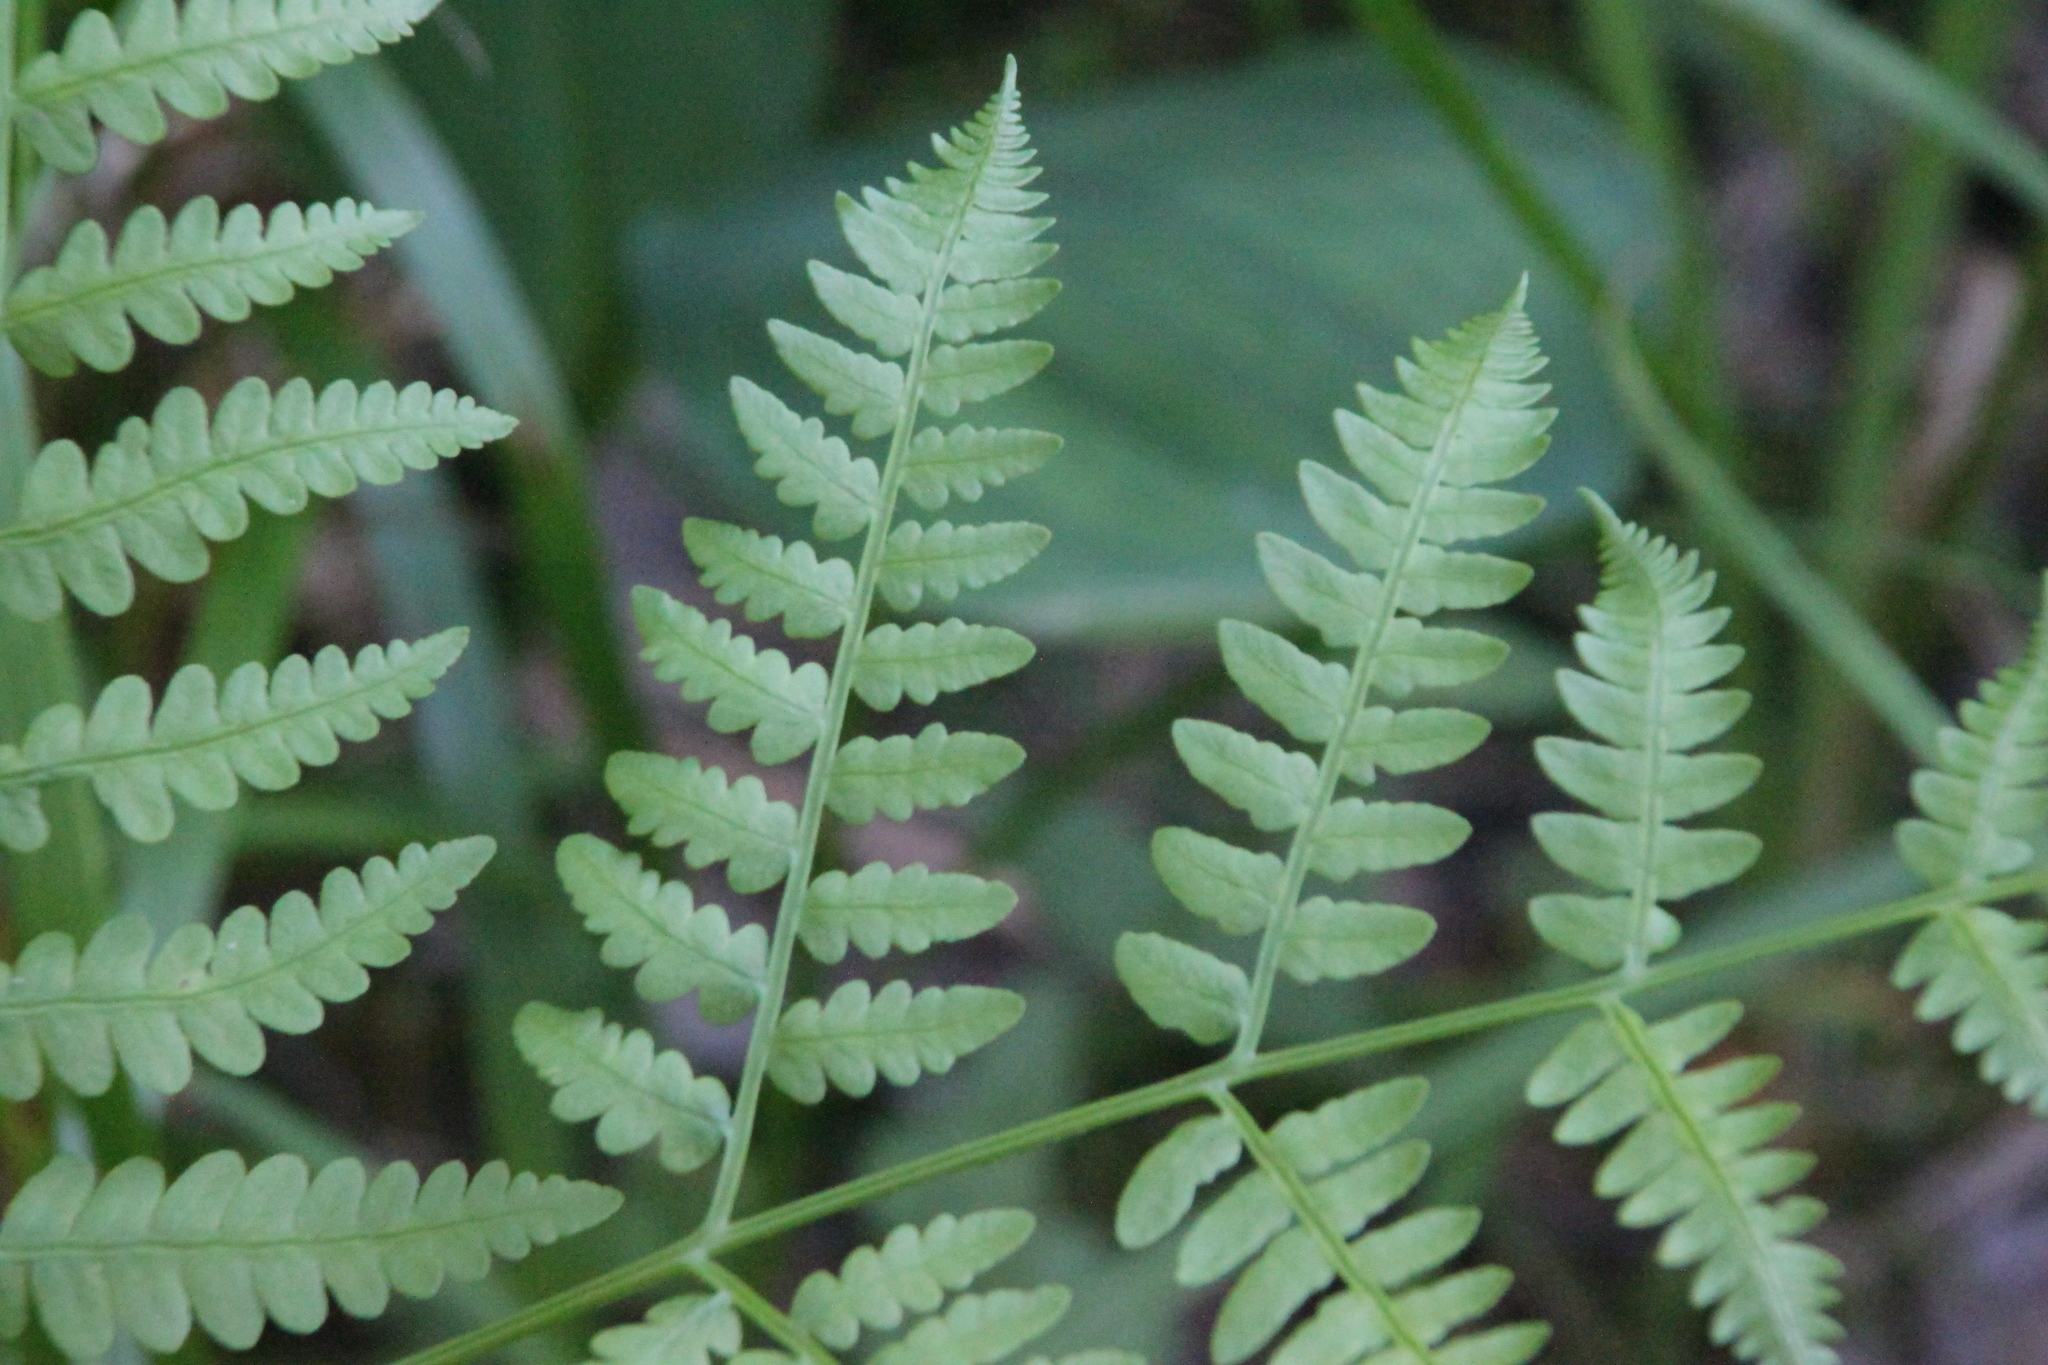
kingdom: Plantae
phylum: Tracheophyta
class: Polypodiopsida
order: Polypodiales
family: Dennstaedtiaceae
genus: Pteridium
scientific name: Pteridium aquilinum
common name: Bracken
